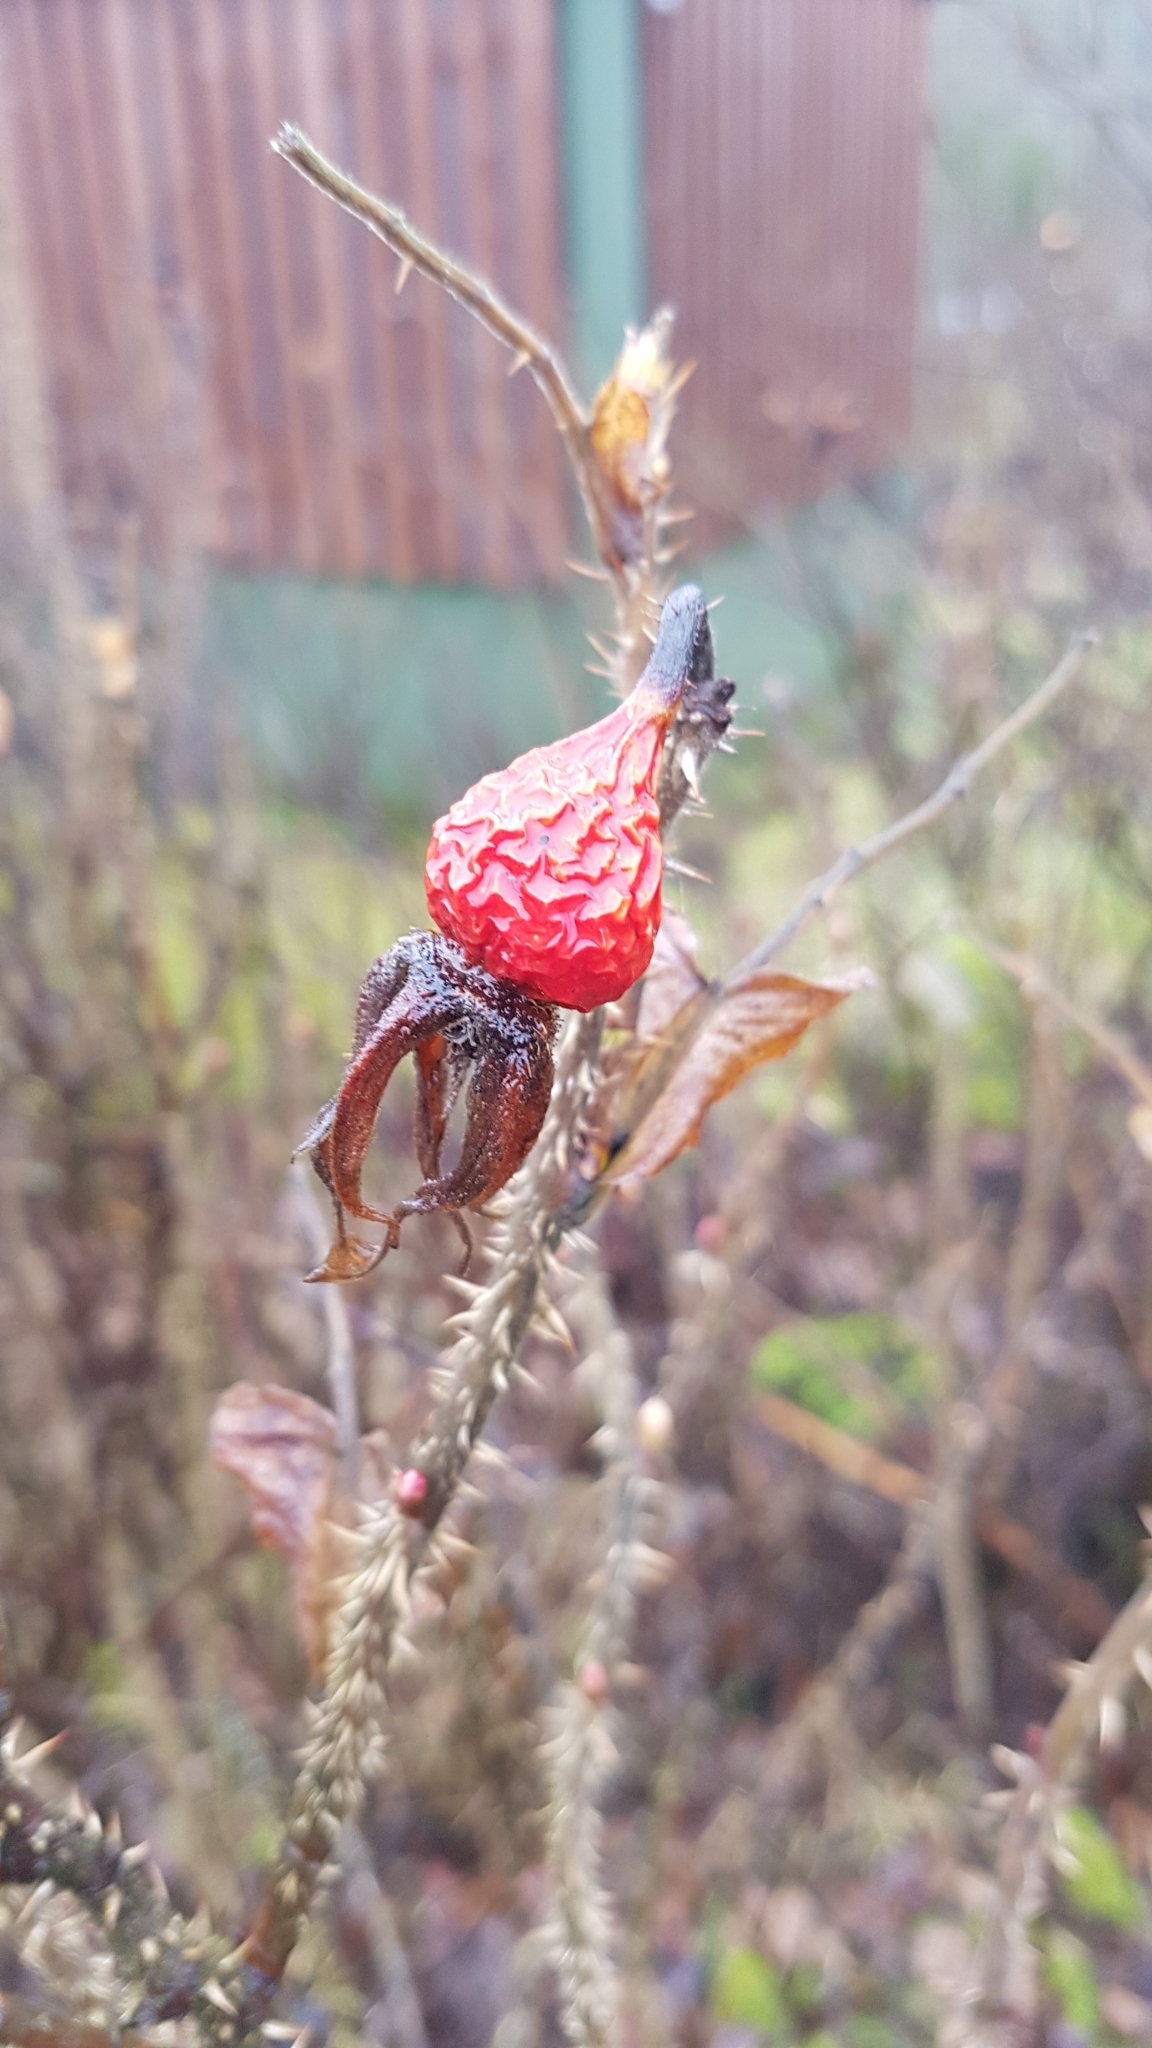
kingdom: Plantae
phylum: Tracheophyta
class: Magnoliopsida
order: Rosales
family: Rosaceae
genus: Rosa
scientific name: Rosa rugosa
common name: Japanese rose
